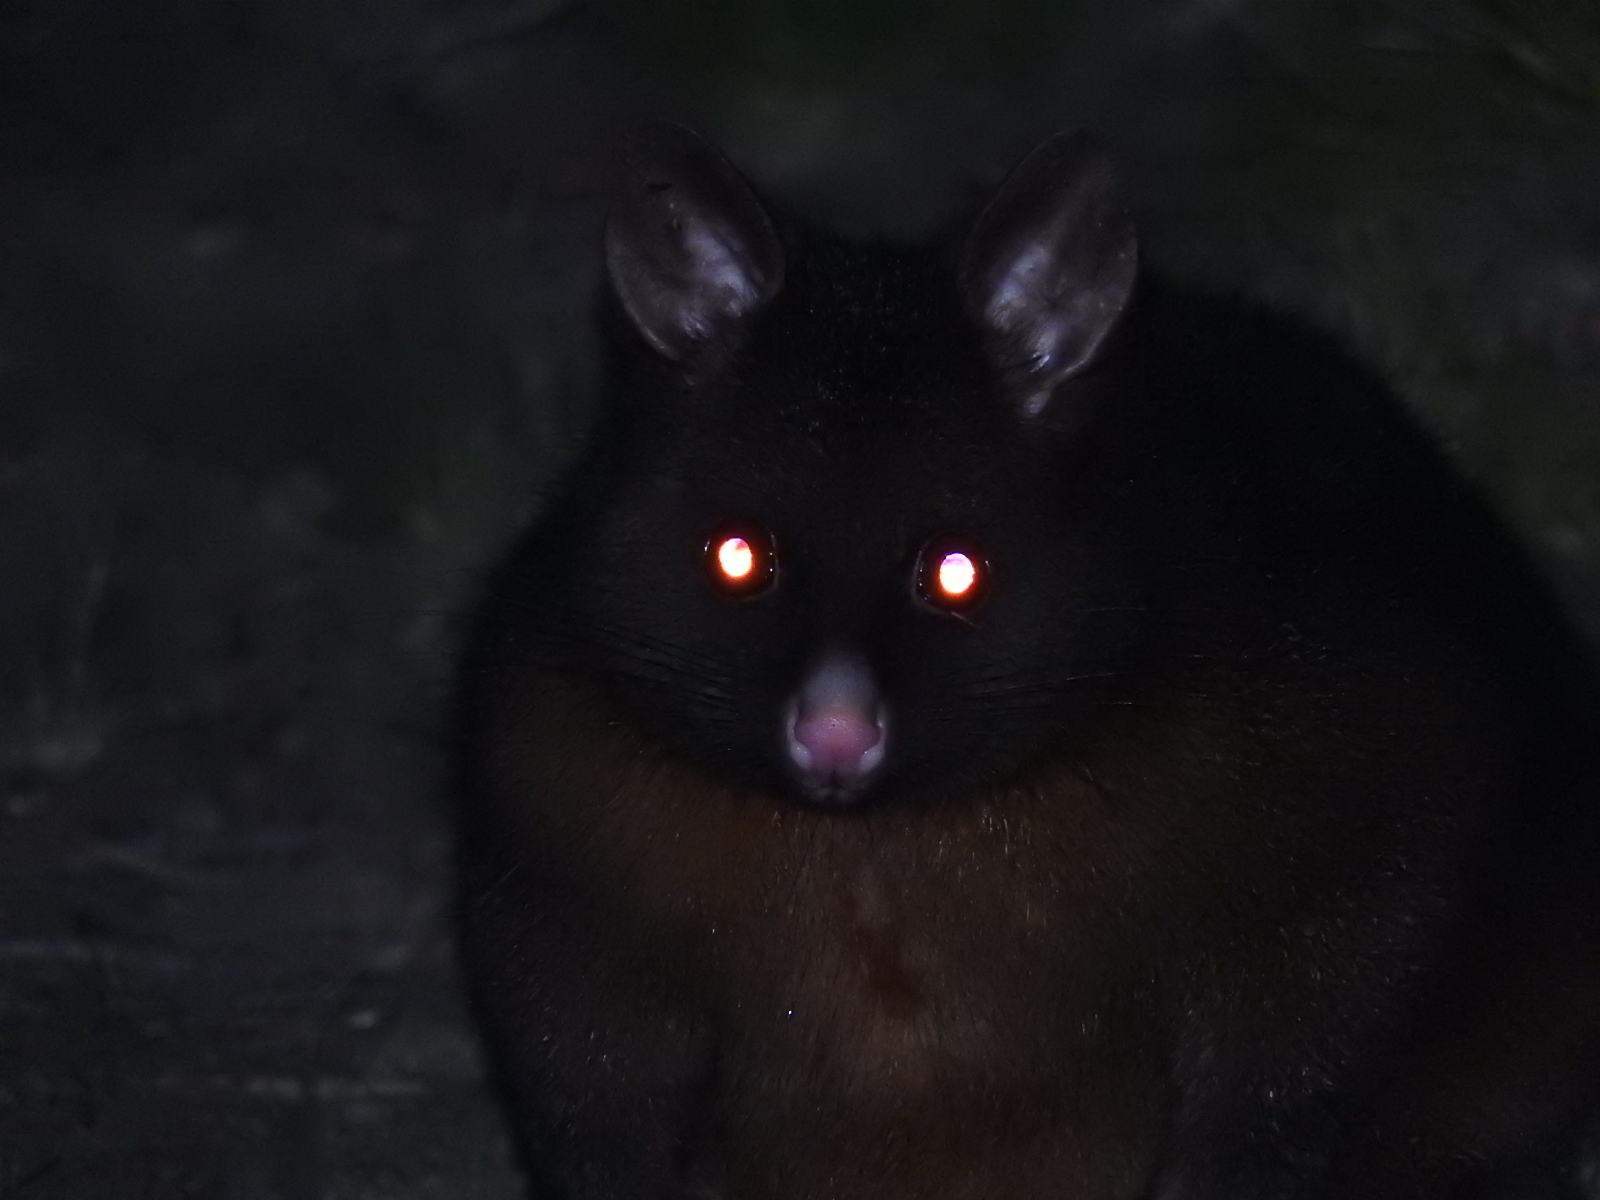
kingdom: Animalia
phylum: Chordata
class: Mammalia
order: Diprotodontia
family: Phalangeridae
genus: Trichosurus
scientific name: Trichosurus vulpecula
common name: Common brushtail
